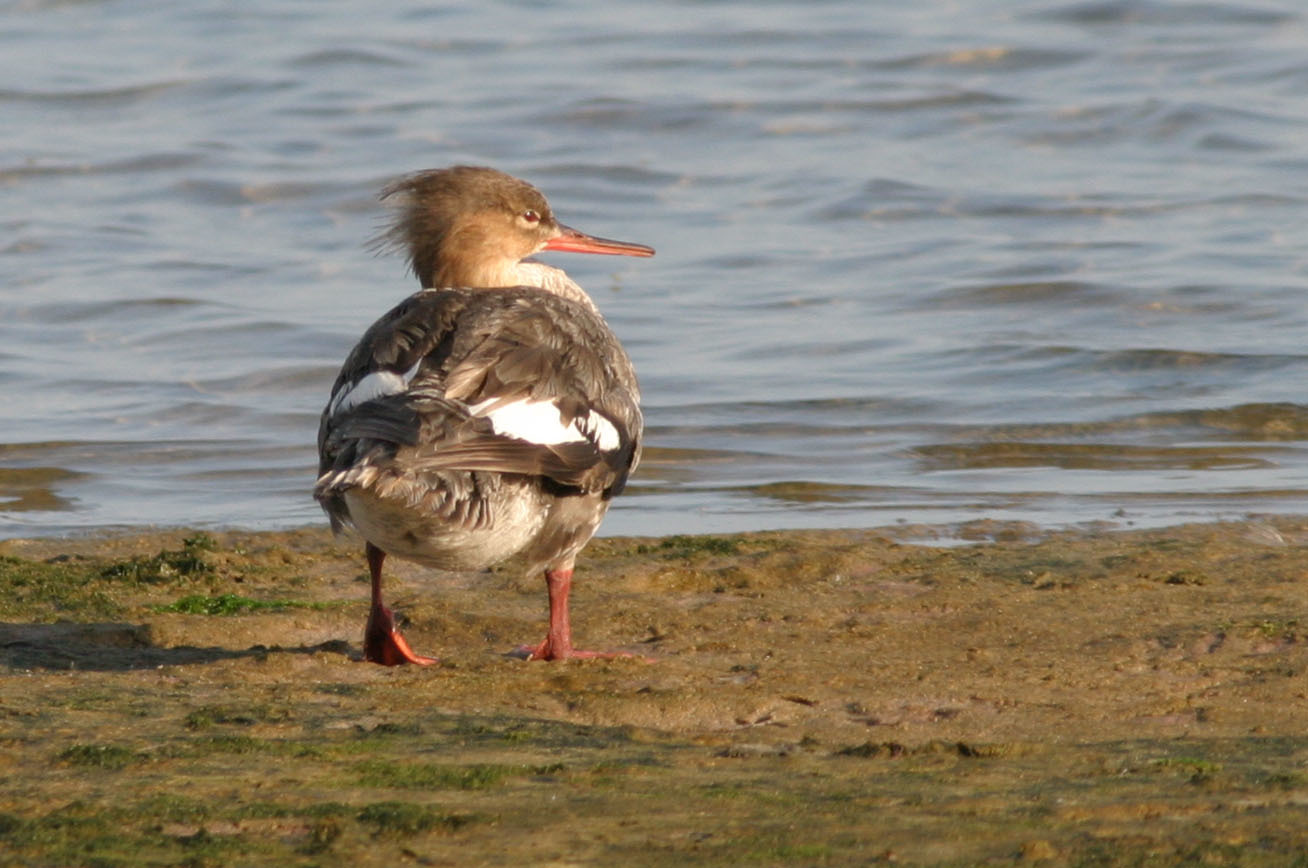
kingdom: Animalia
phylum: Chordata
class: Aves
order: Anseriformes
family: Anatidae
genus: Mergus
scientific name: Mergus serrator
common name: Red-breasted merganser
